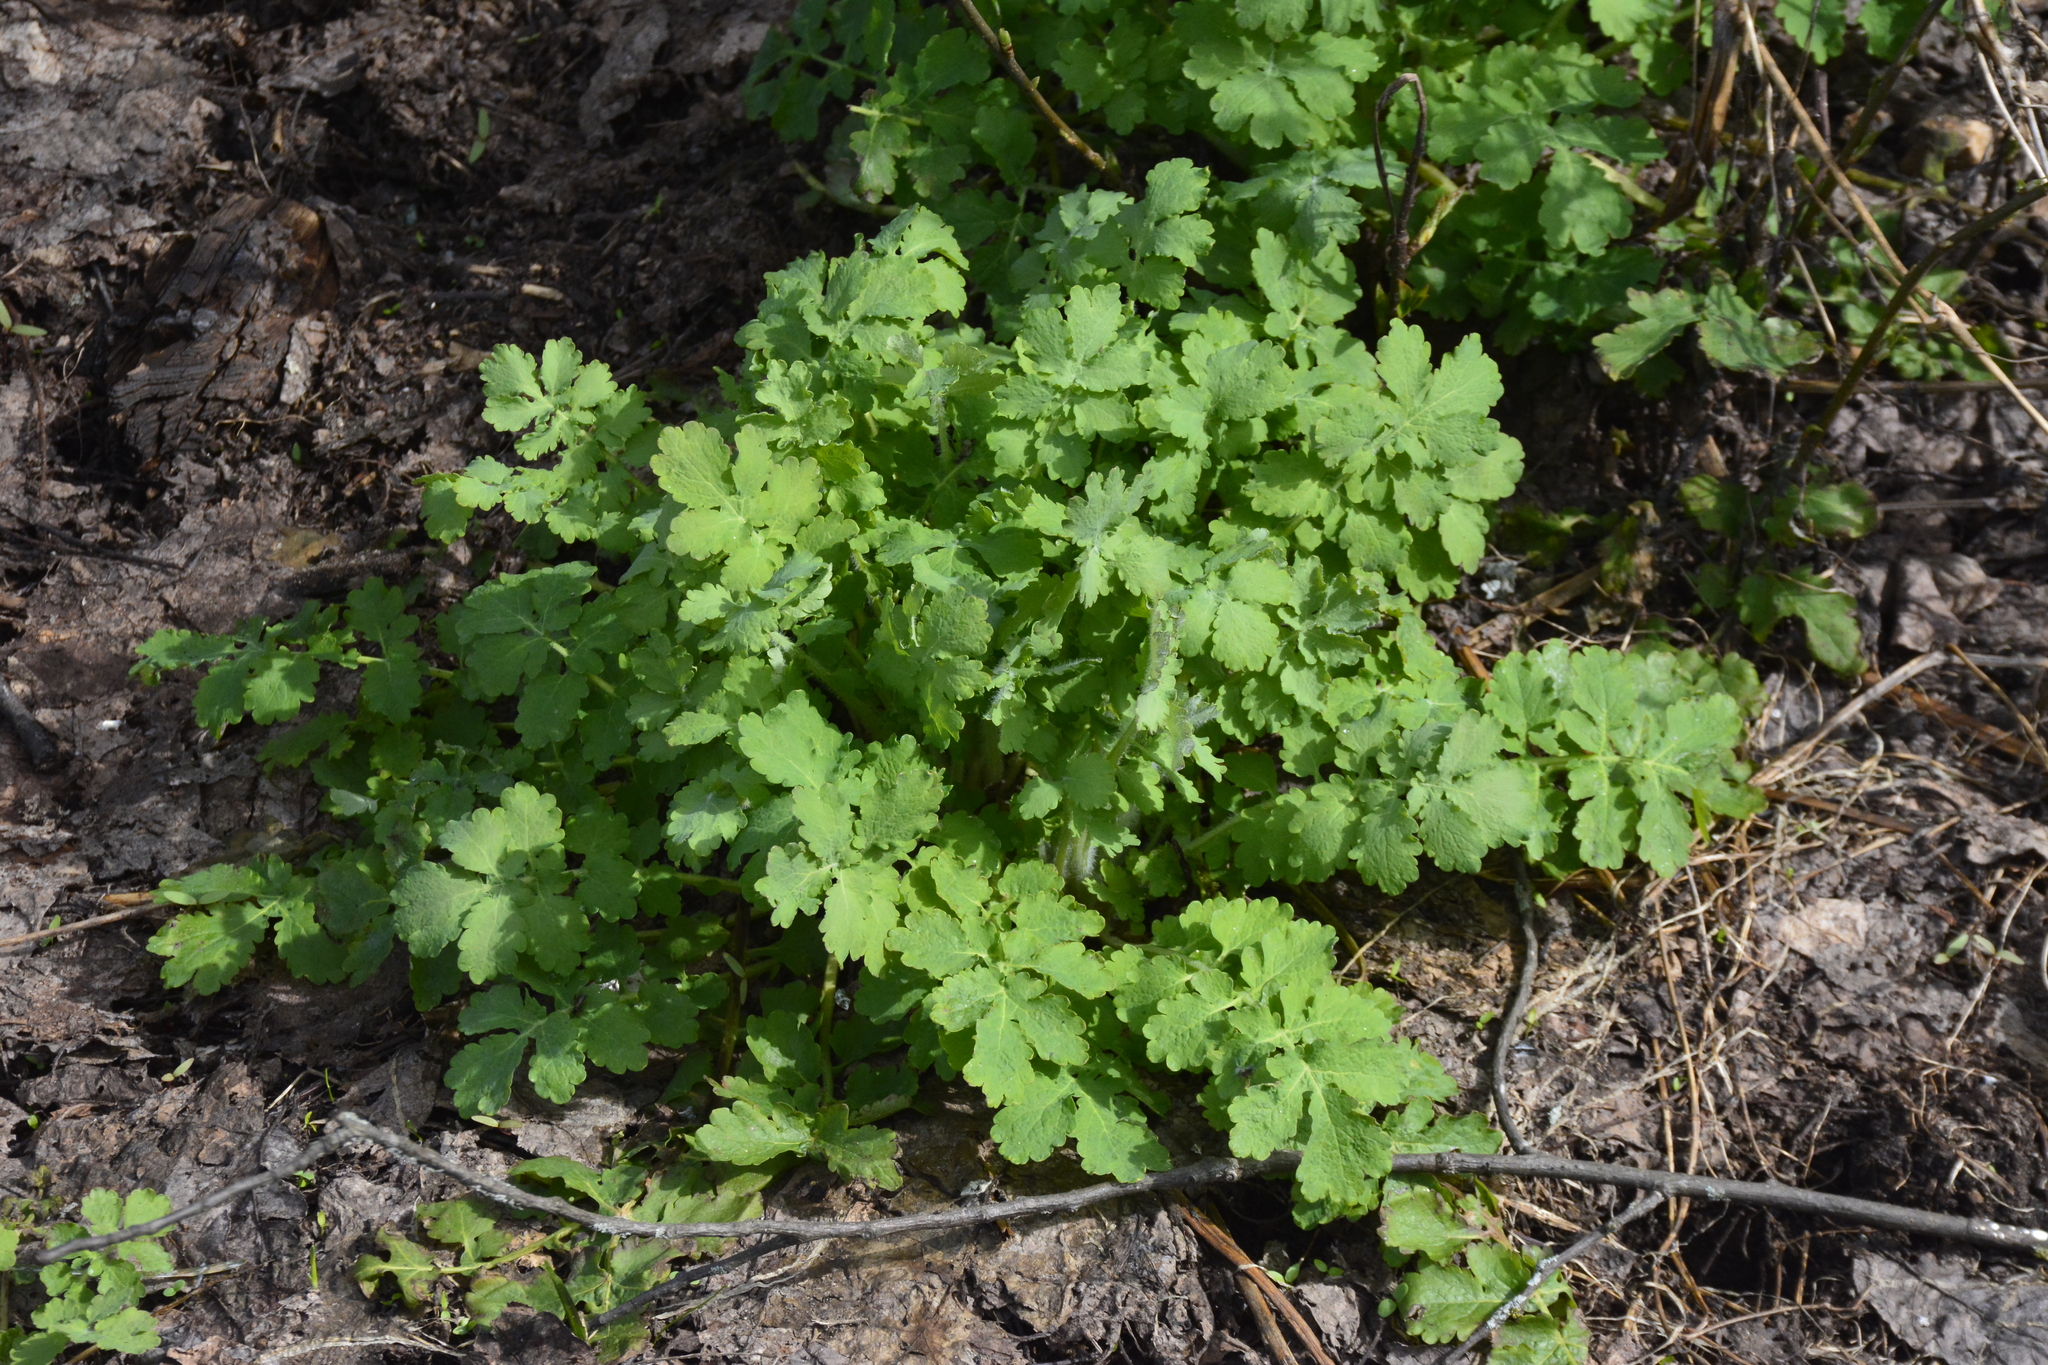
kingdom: Plantae
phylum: Tracheophyta
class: Magnoliopsida
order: Ranunculales
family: Papaveraceae
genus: Chelidonium
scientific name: Chelidonium majus
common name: Greater celandine
